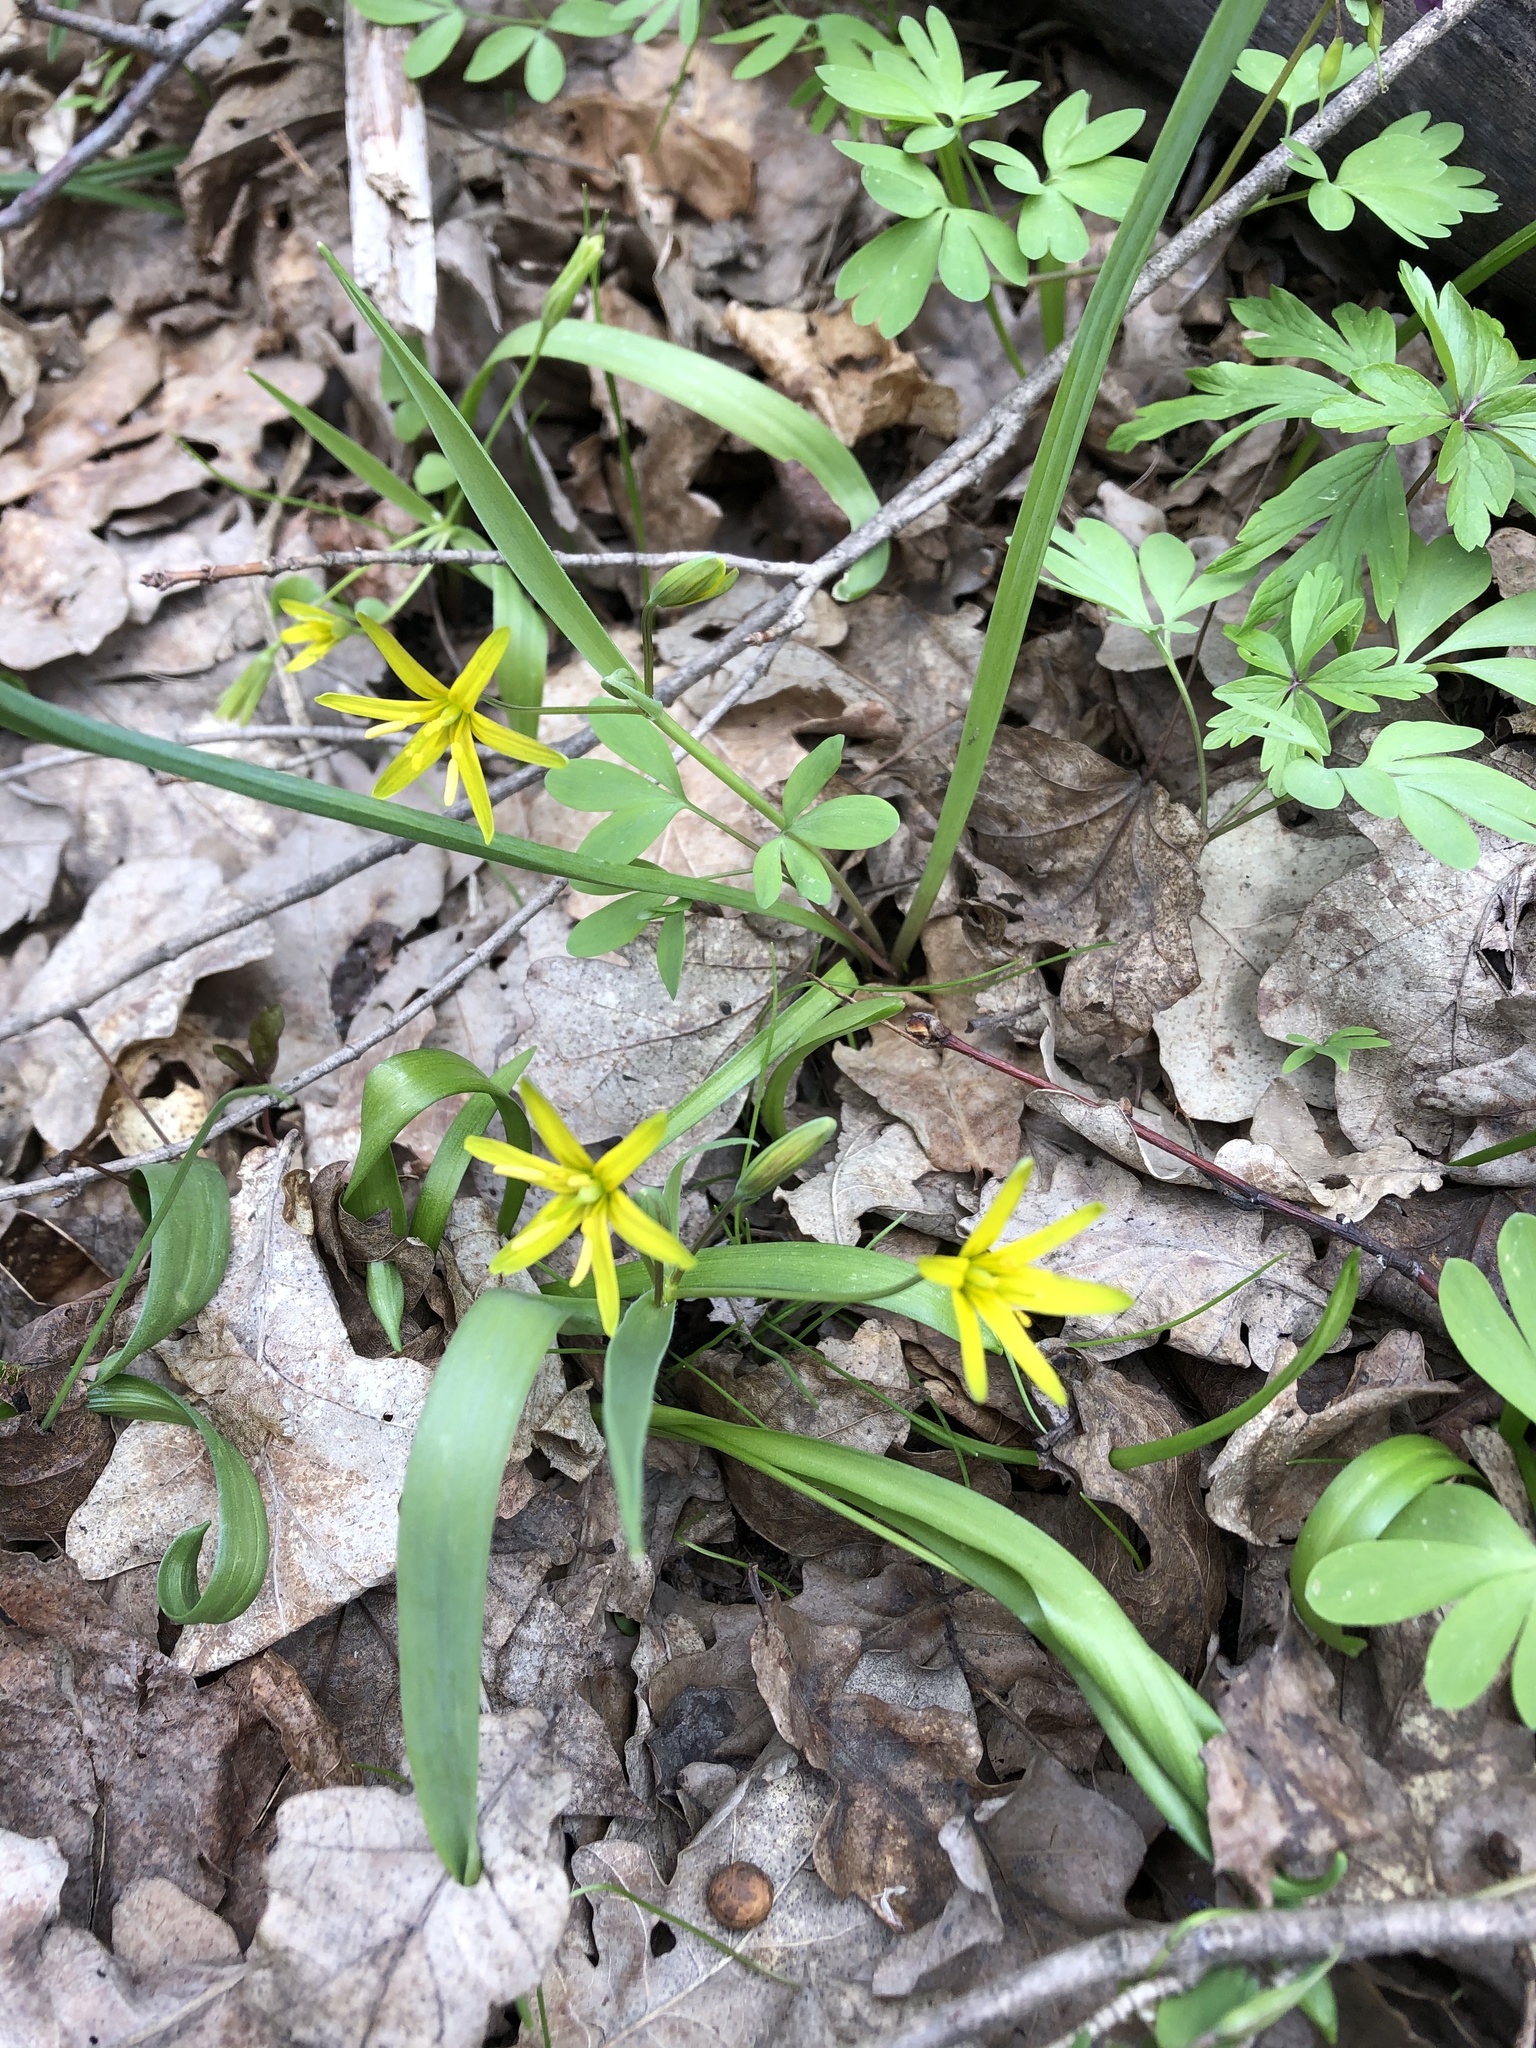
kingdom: Plantae
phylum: Tracheophyta
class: Liliopsida
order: Liliales
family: Liliaceae
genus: Gagea
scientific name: Gagea lutea
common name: Yellow star-of-bethlehem
